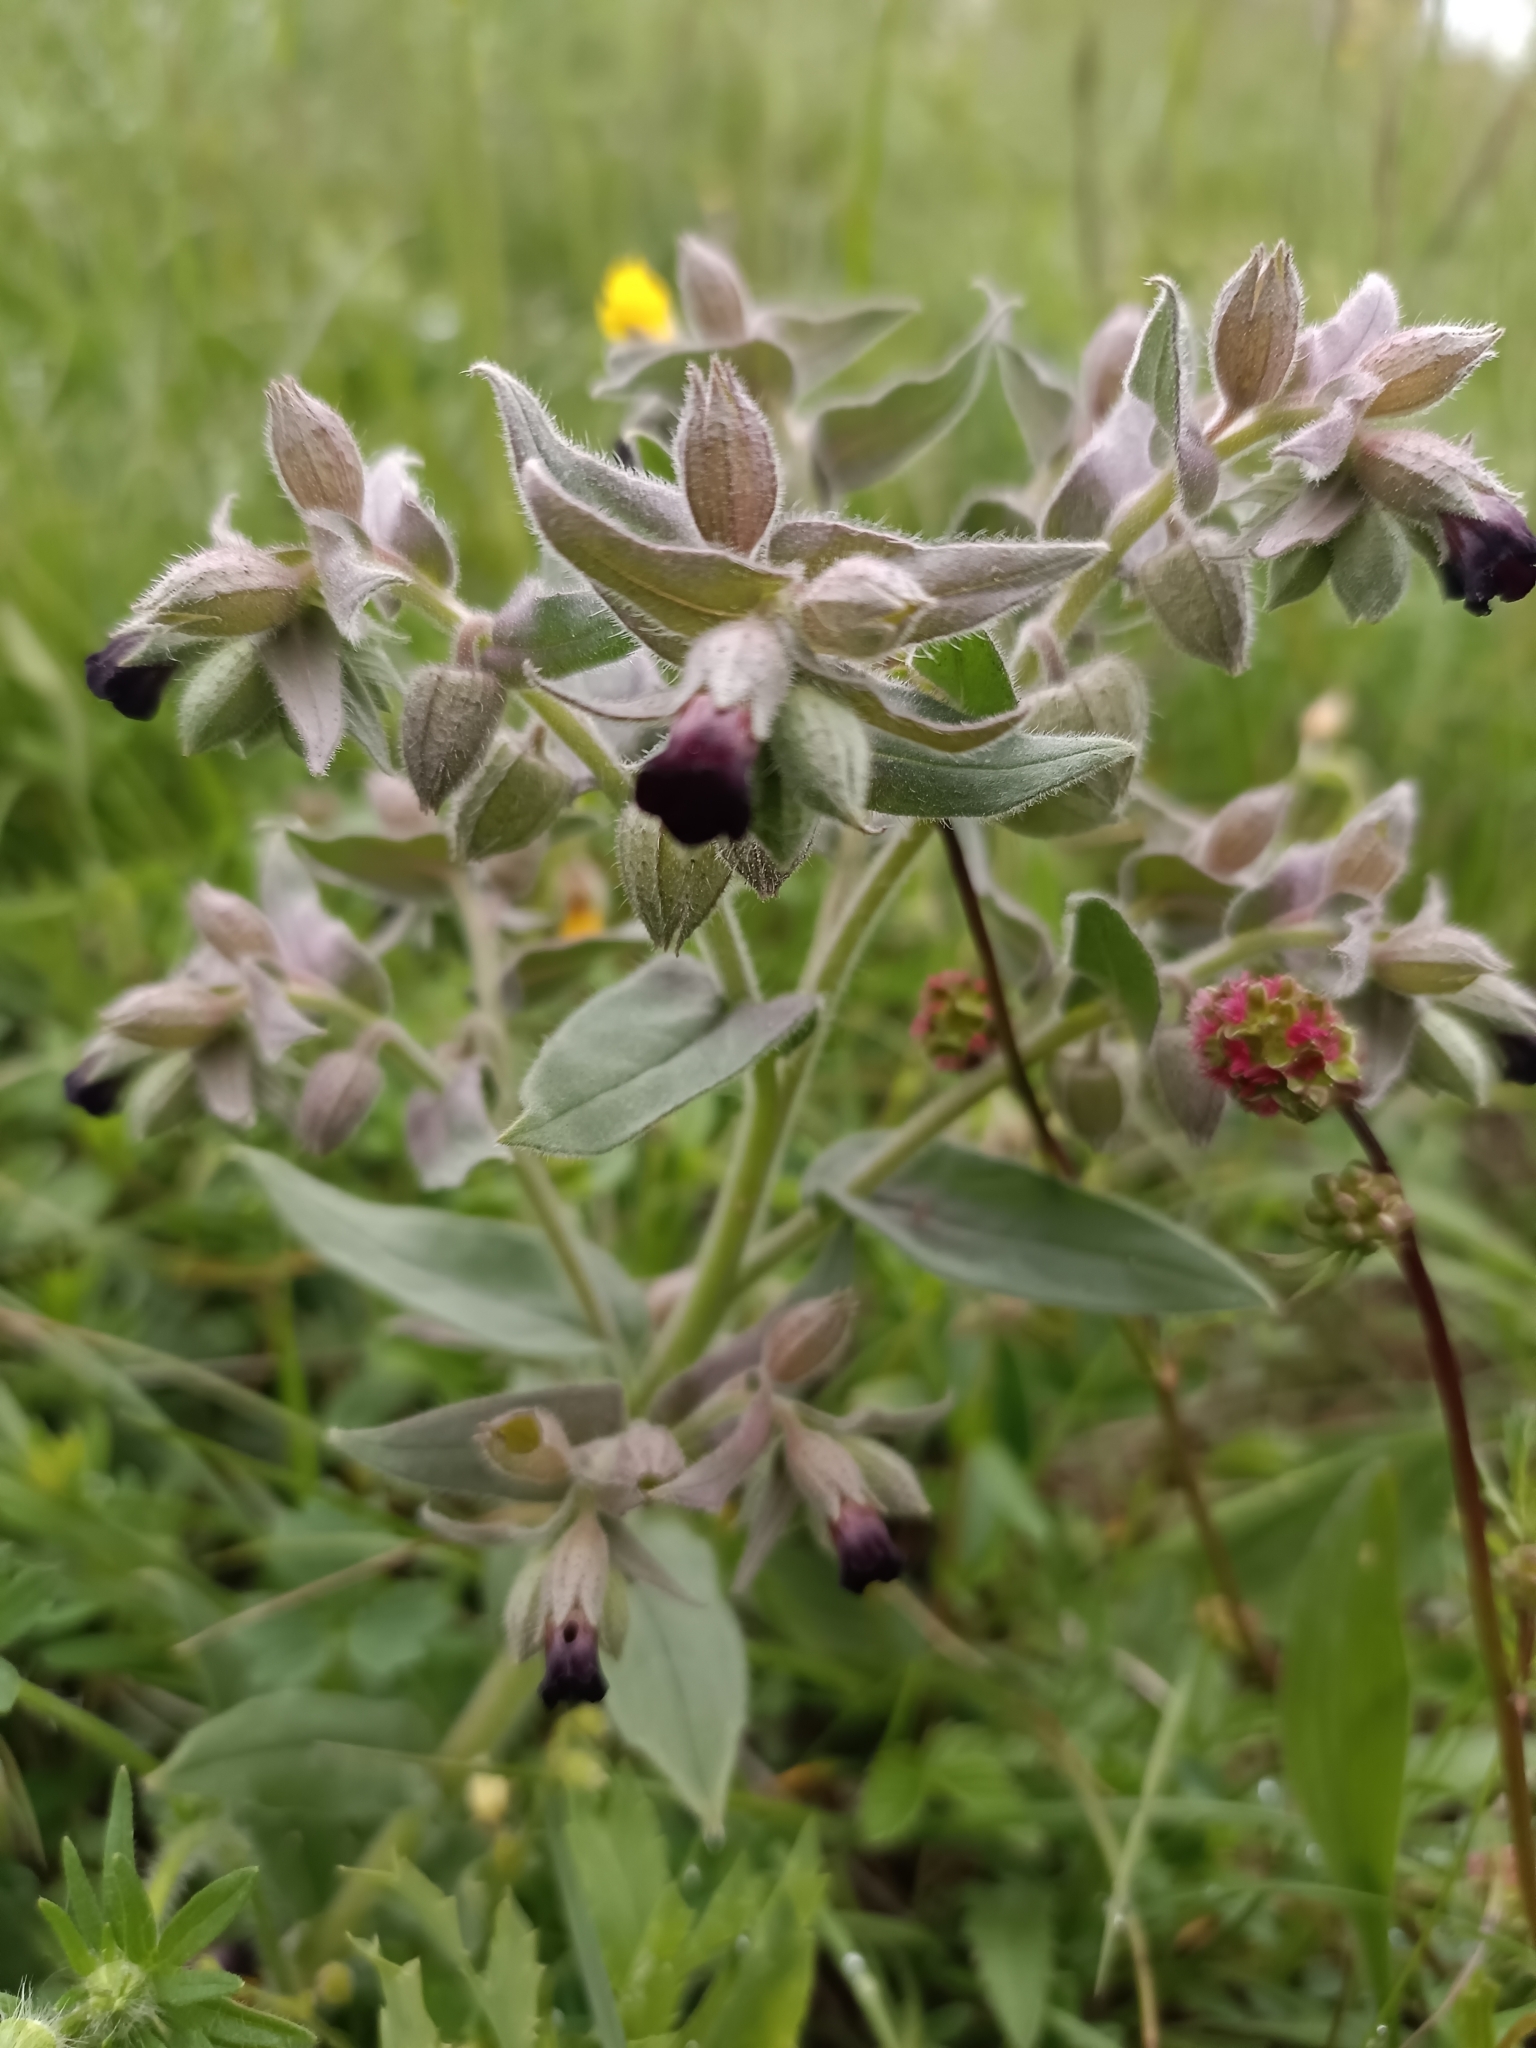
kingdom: Plantae
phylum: Tracheophyta
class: Magnoliopsida
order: Boraginales
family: Boraginaceae
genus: Nonea
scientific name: Nonea pulla
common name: Brown nonea
